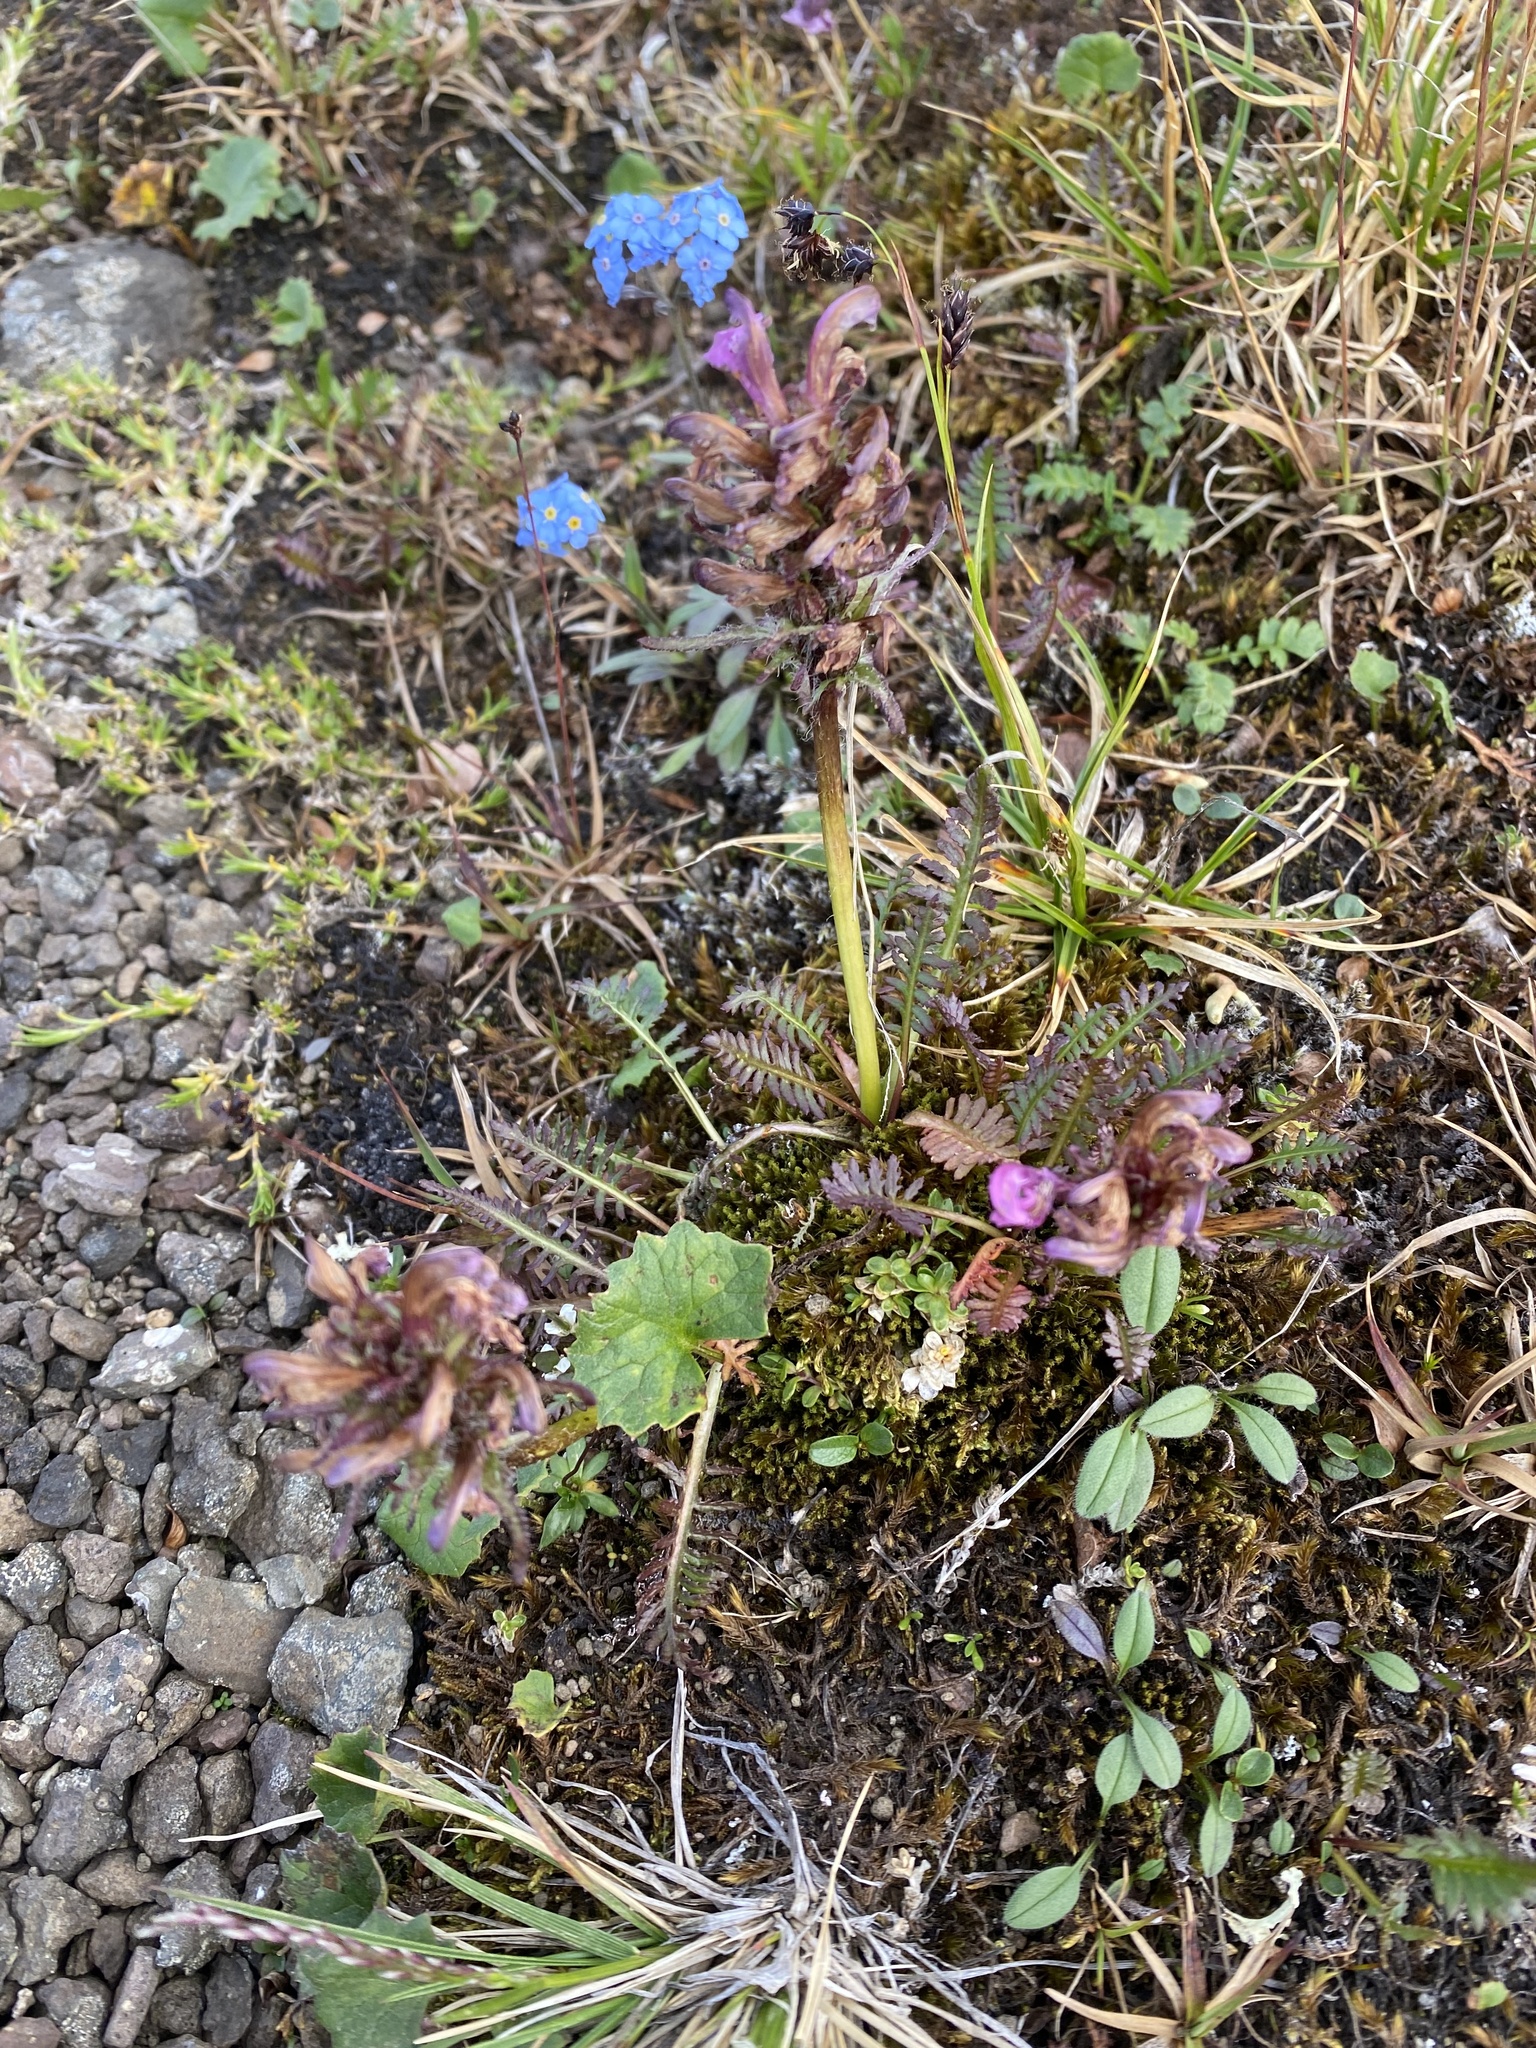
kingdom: Plantae
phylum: Tracheophyta
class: Magnoliopsida
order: Lamiales
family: Orobanchaceae
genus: Pedicularis
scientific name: Pedicularis interior
